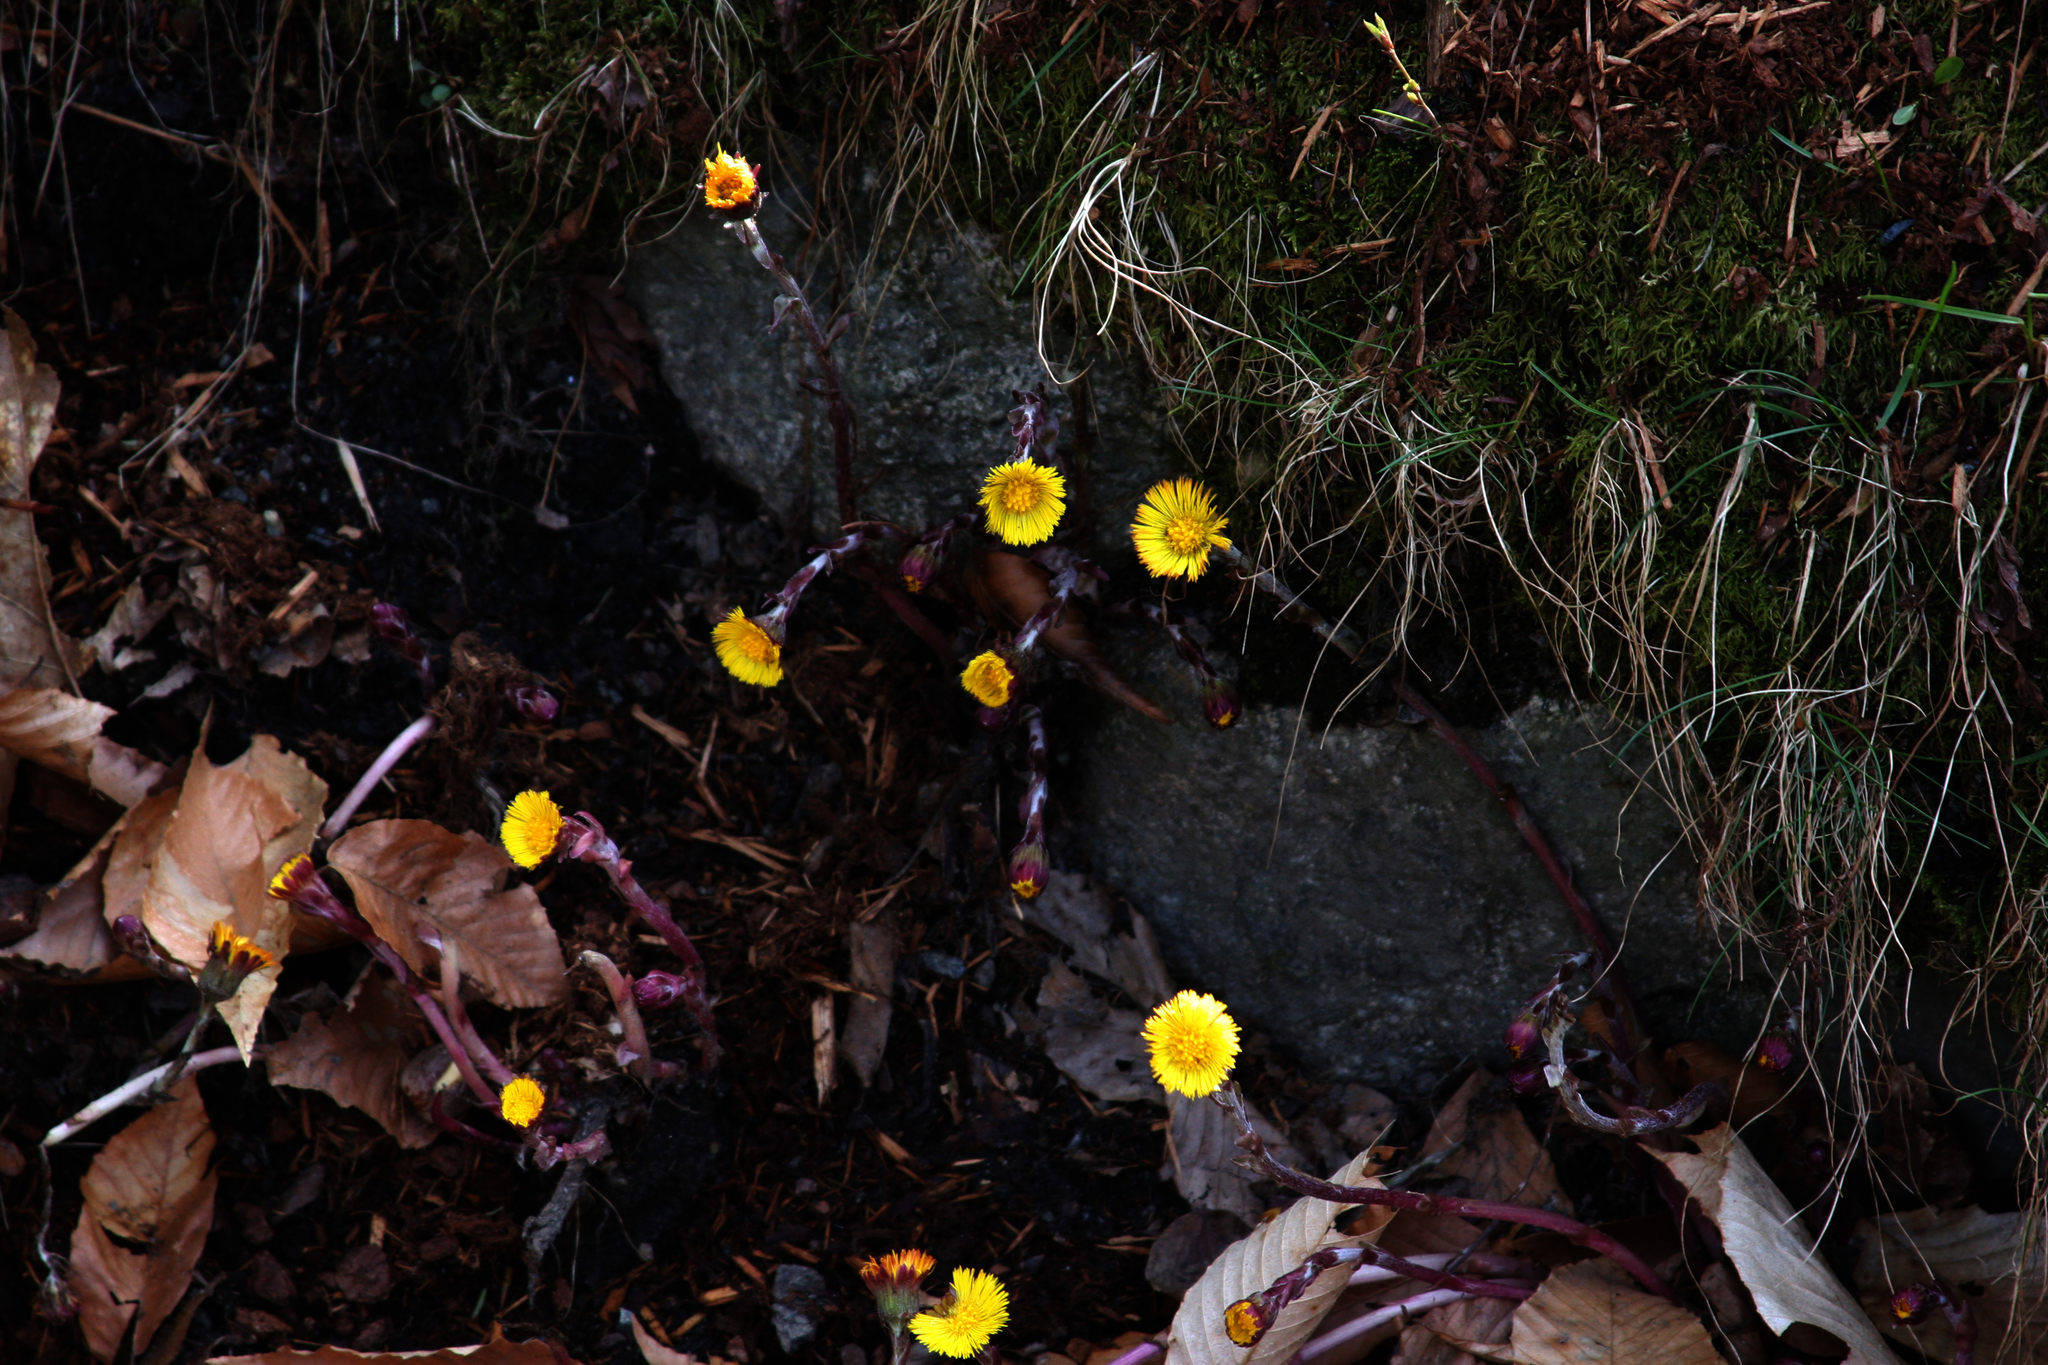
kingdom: Plantae
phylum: Tracheophyta
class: Magnoliopsida
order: Asterales
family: Asteraceae
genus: Tussilago
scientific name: Tussilago farfara
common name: Coltsfoot
